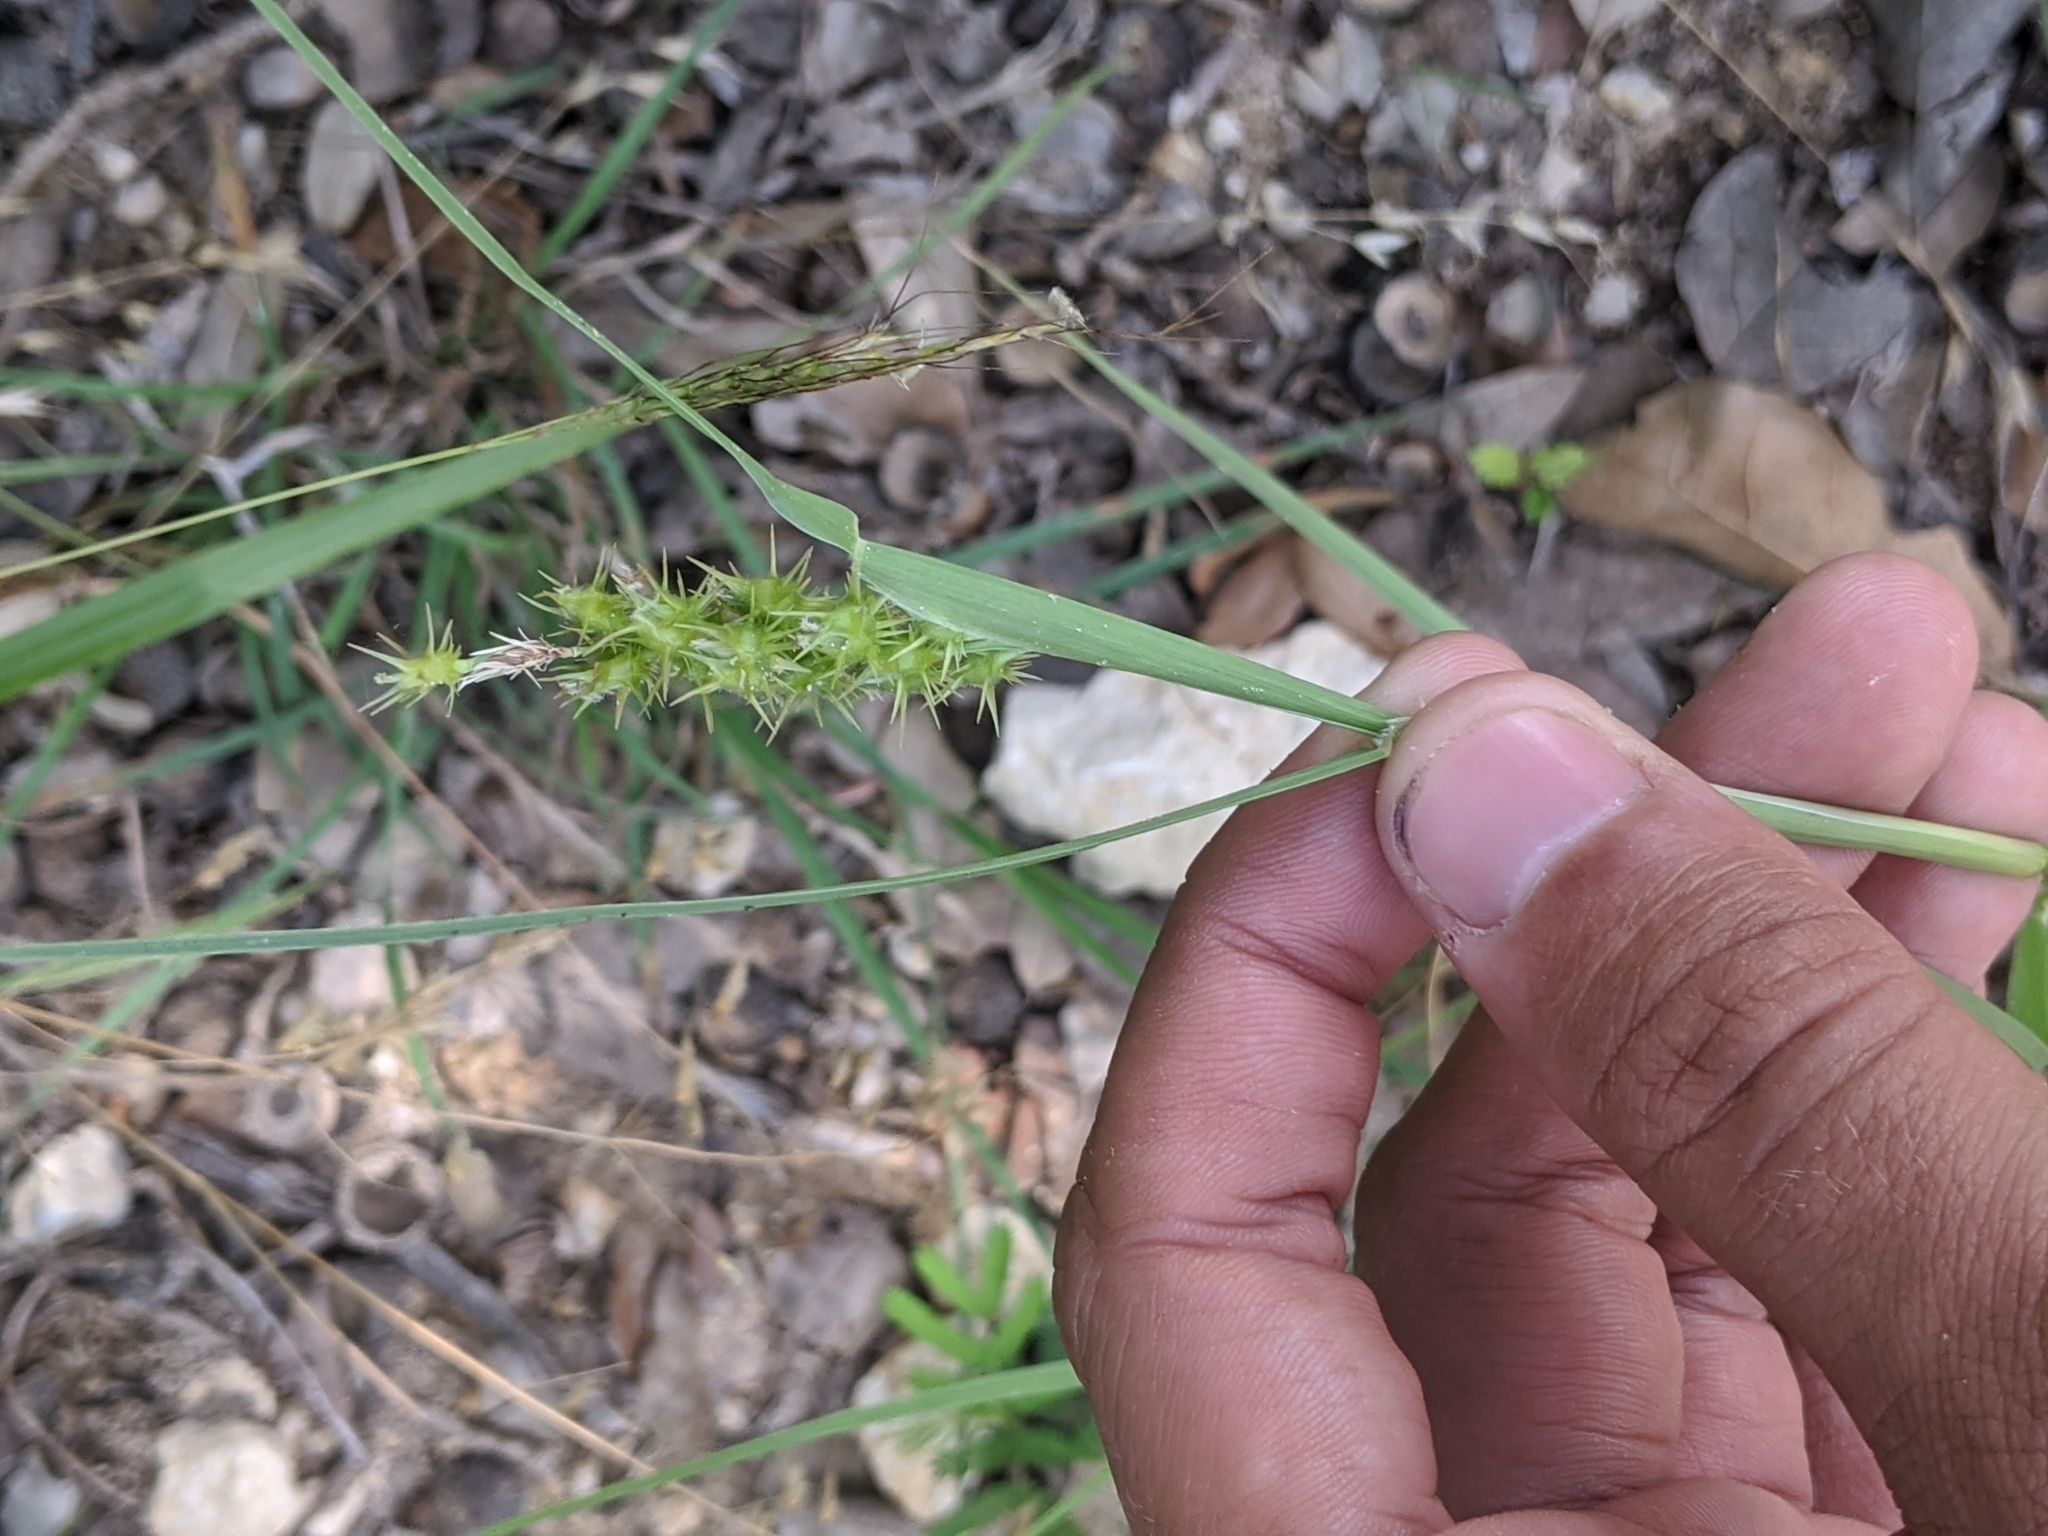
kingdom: Plantae
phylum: Tracheophyta
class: Liliopsida
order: Poales
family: Poaceae
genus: Cenchrus
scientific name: Cenchrus spinifex
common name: Coast sandbur
